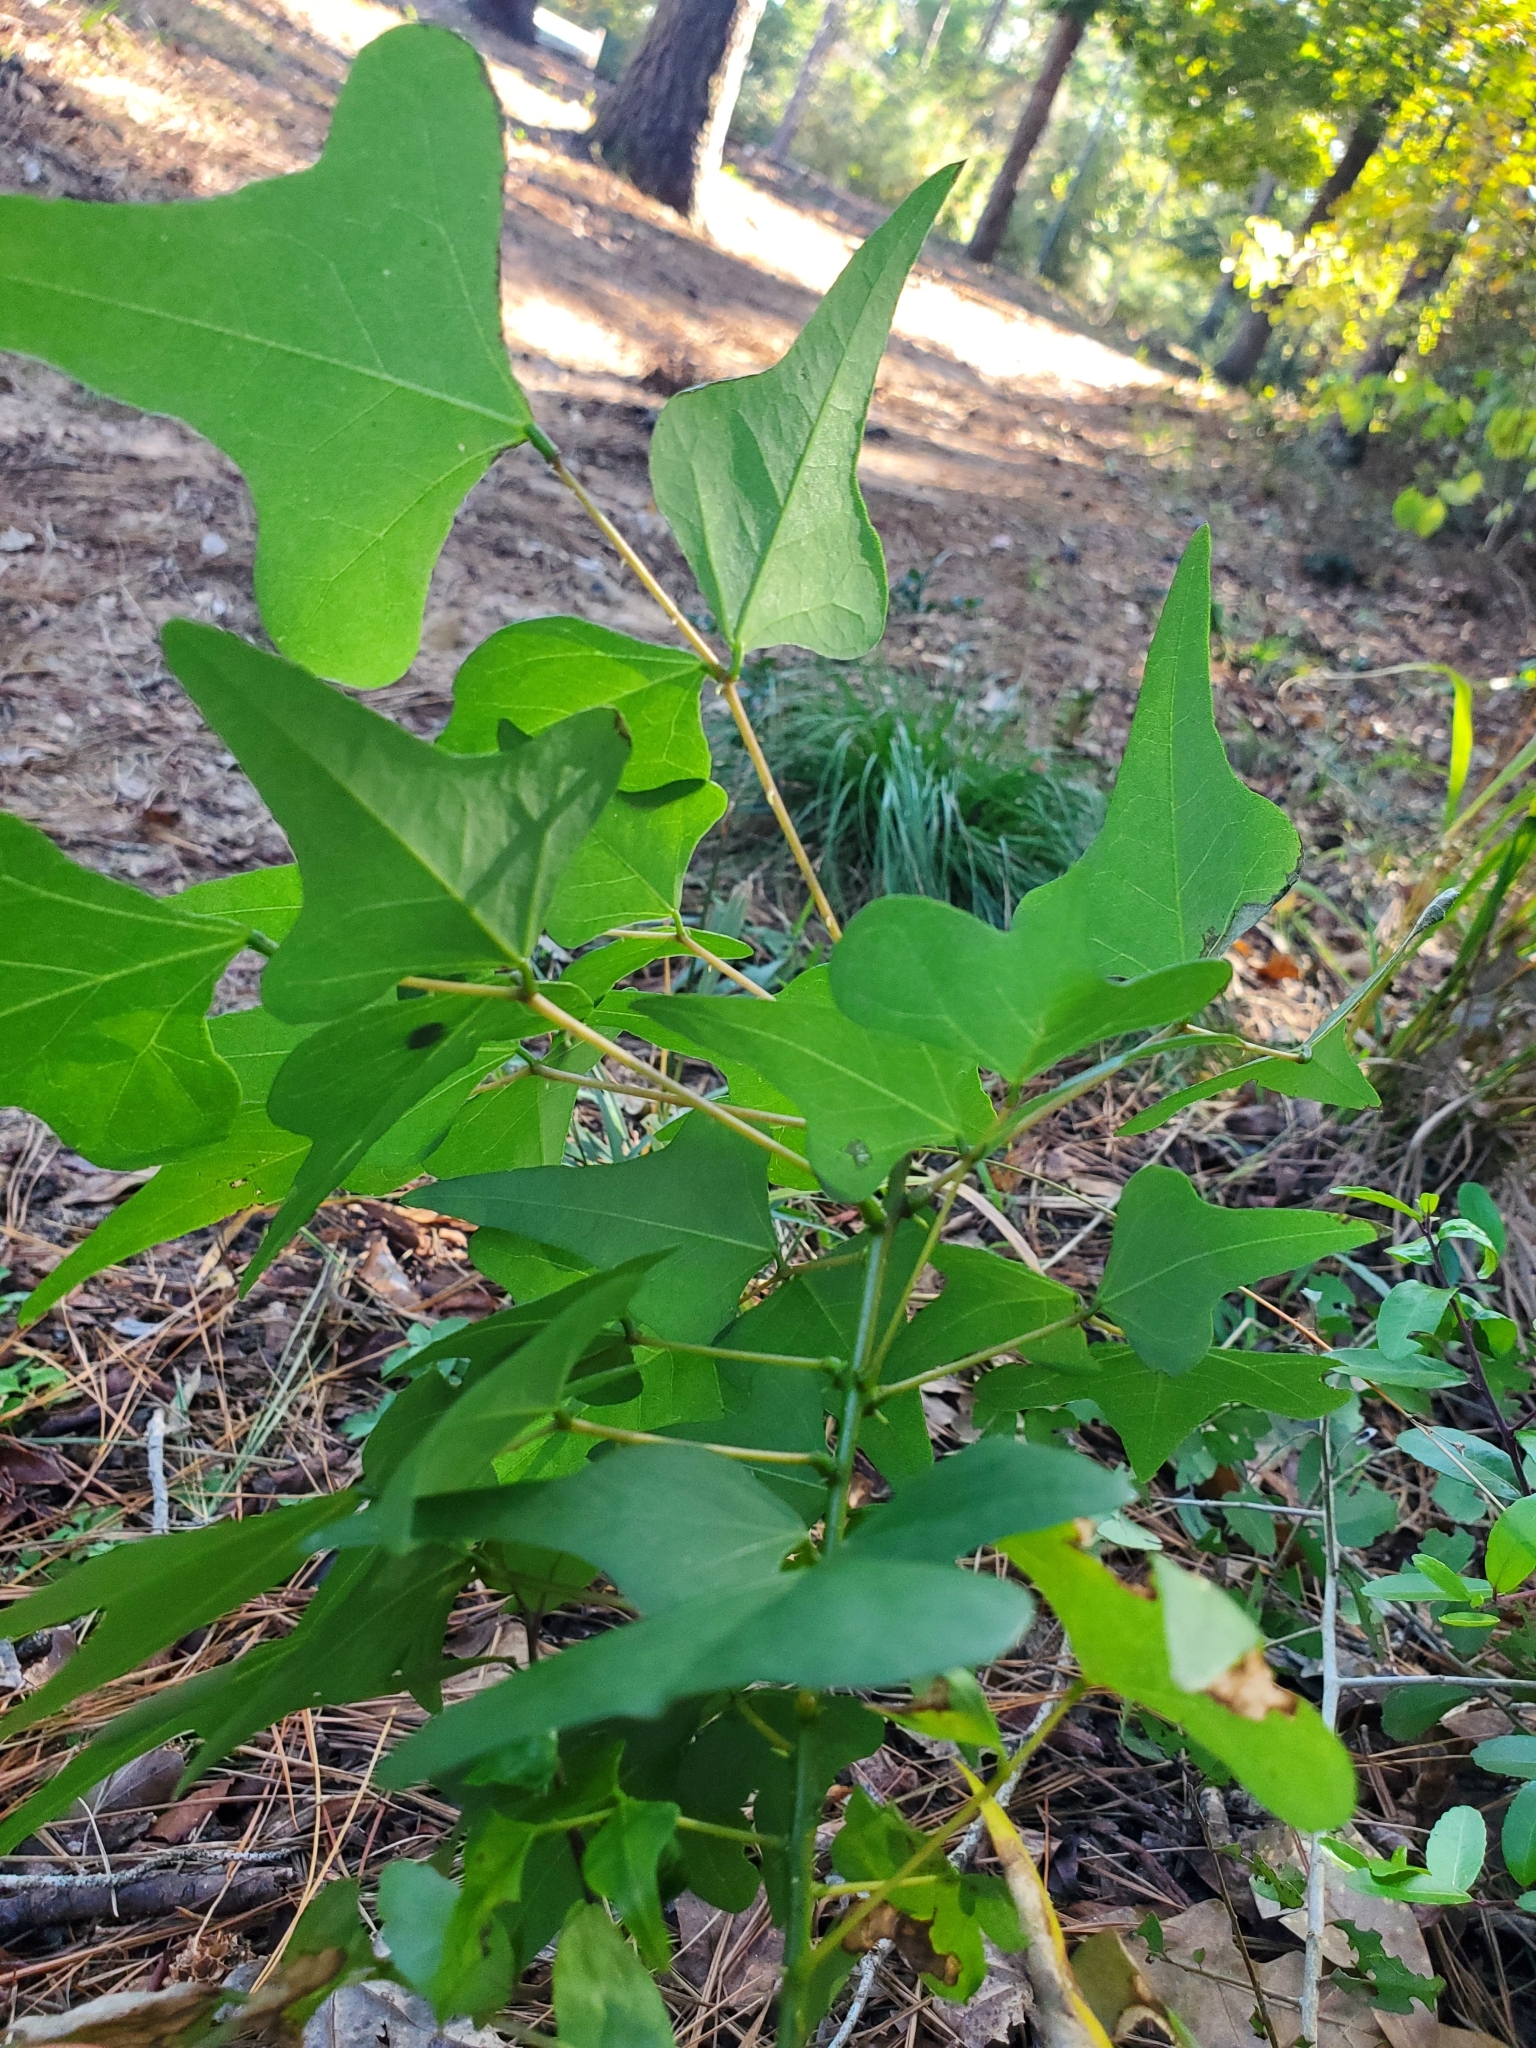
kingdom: Plantae
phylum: Tracheophyta
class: Magnoliopsida
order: Fabales
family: Fabaceae
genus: Erythrina
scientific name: Erythrina herbacea
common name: Coral-bean
